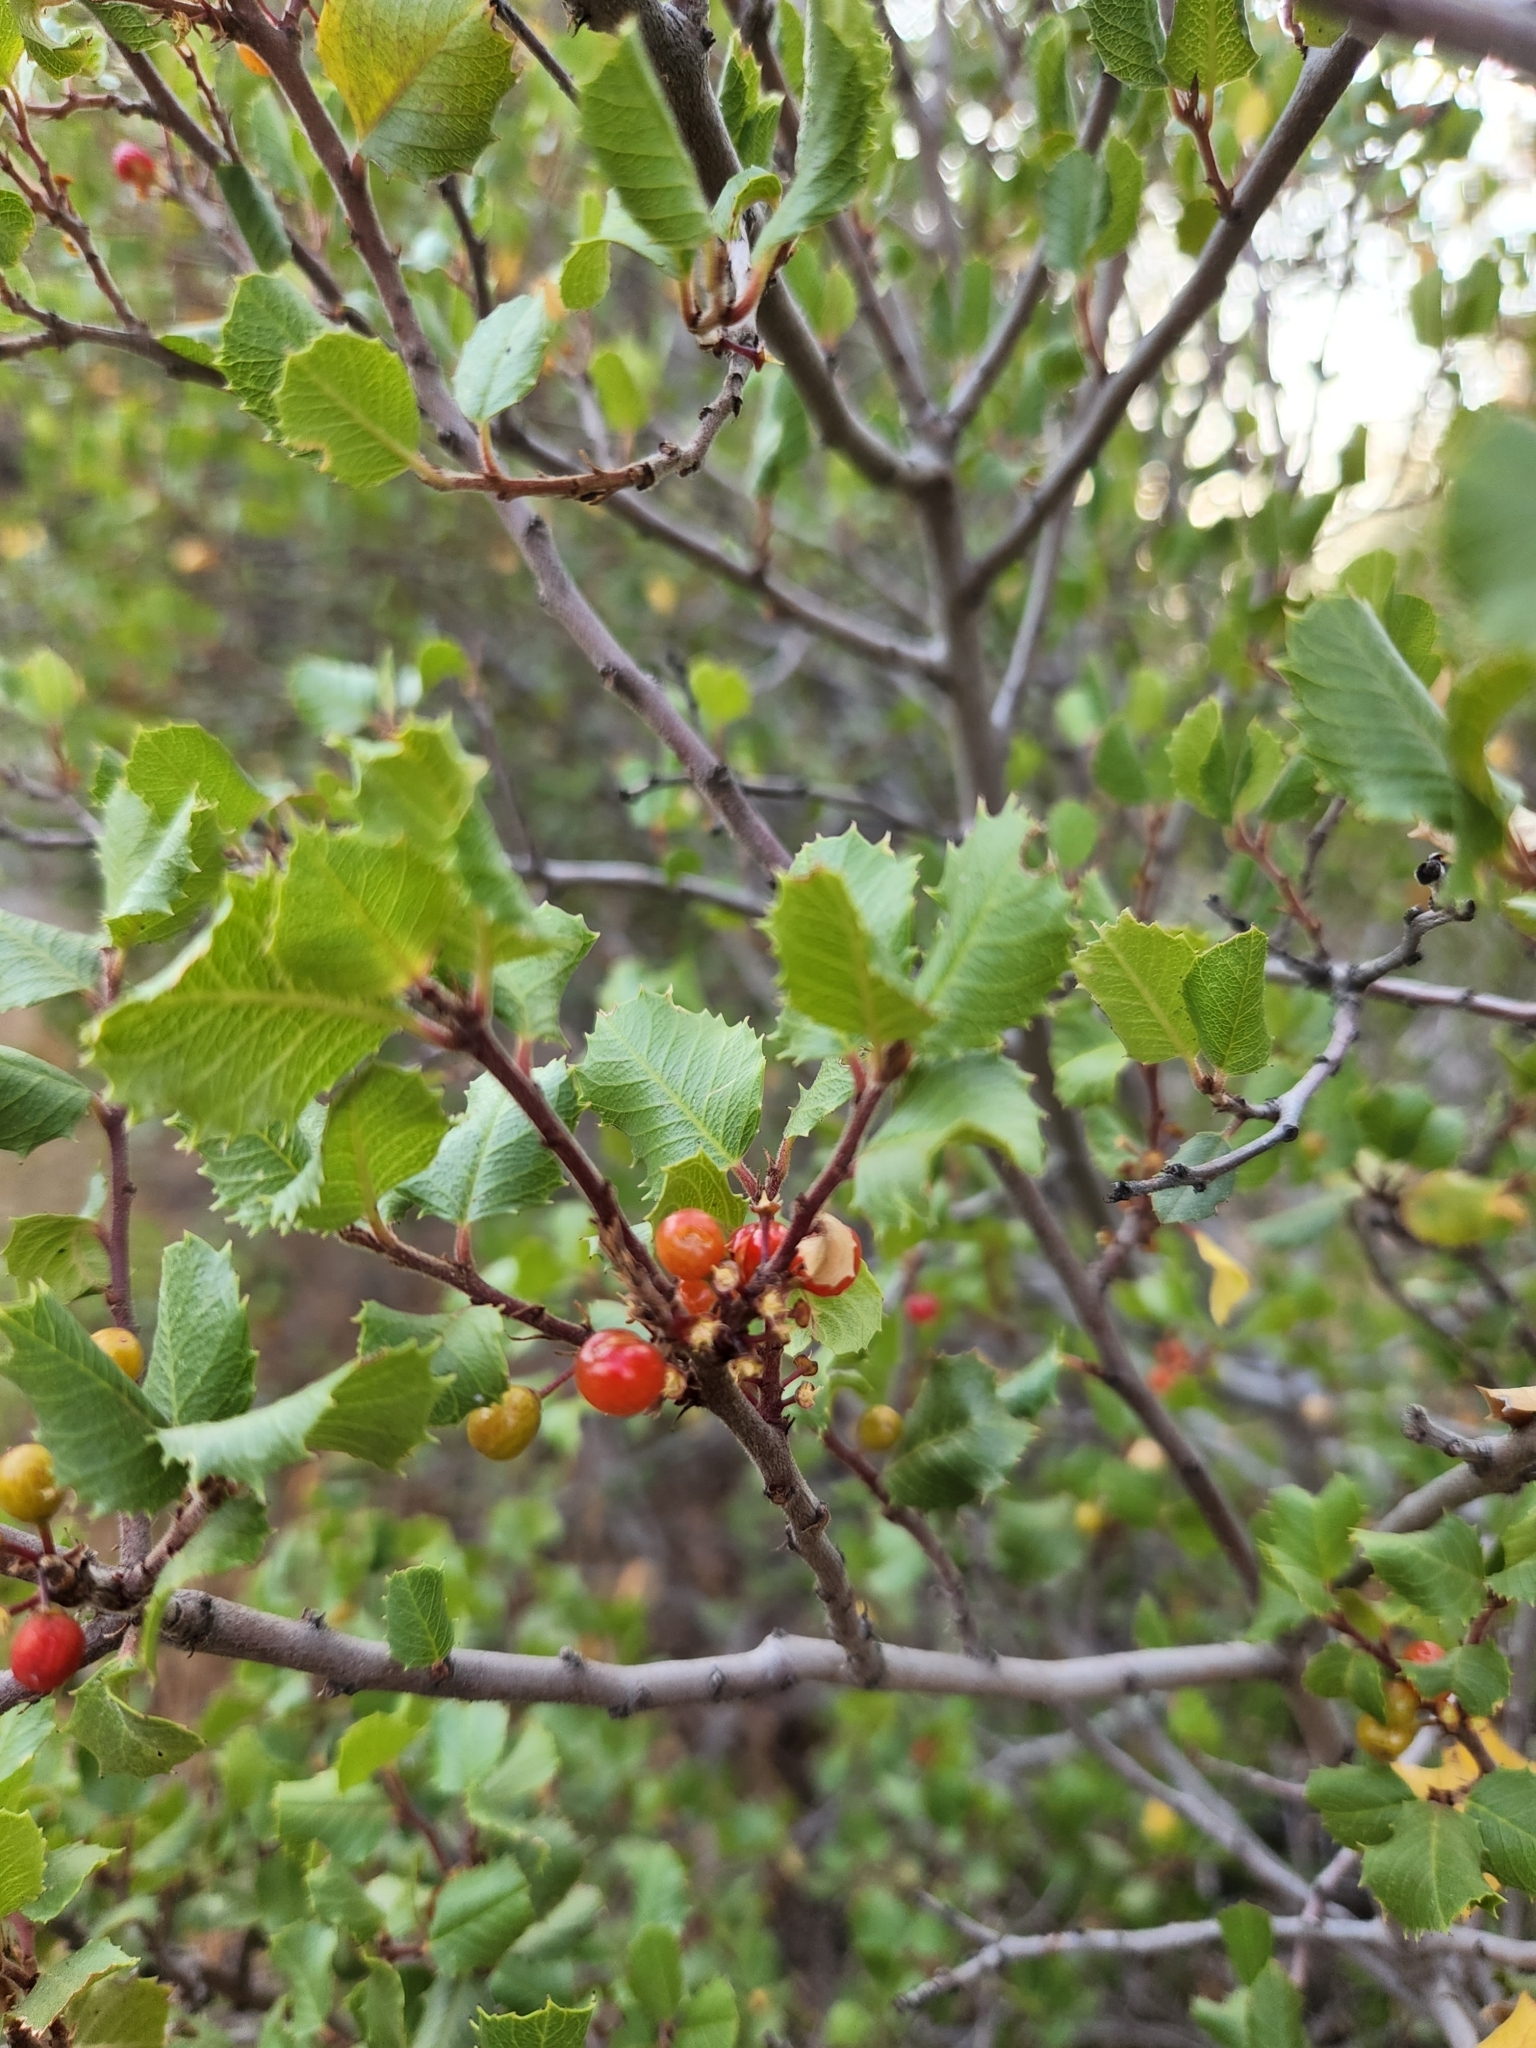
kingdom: Plantae
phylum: Tracheophyta
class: Magnoliopsida
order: Rosales
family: Rhamnaceae
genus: Endotropis
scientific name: Endotropis crocea
